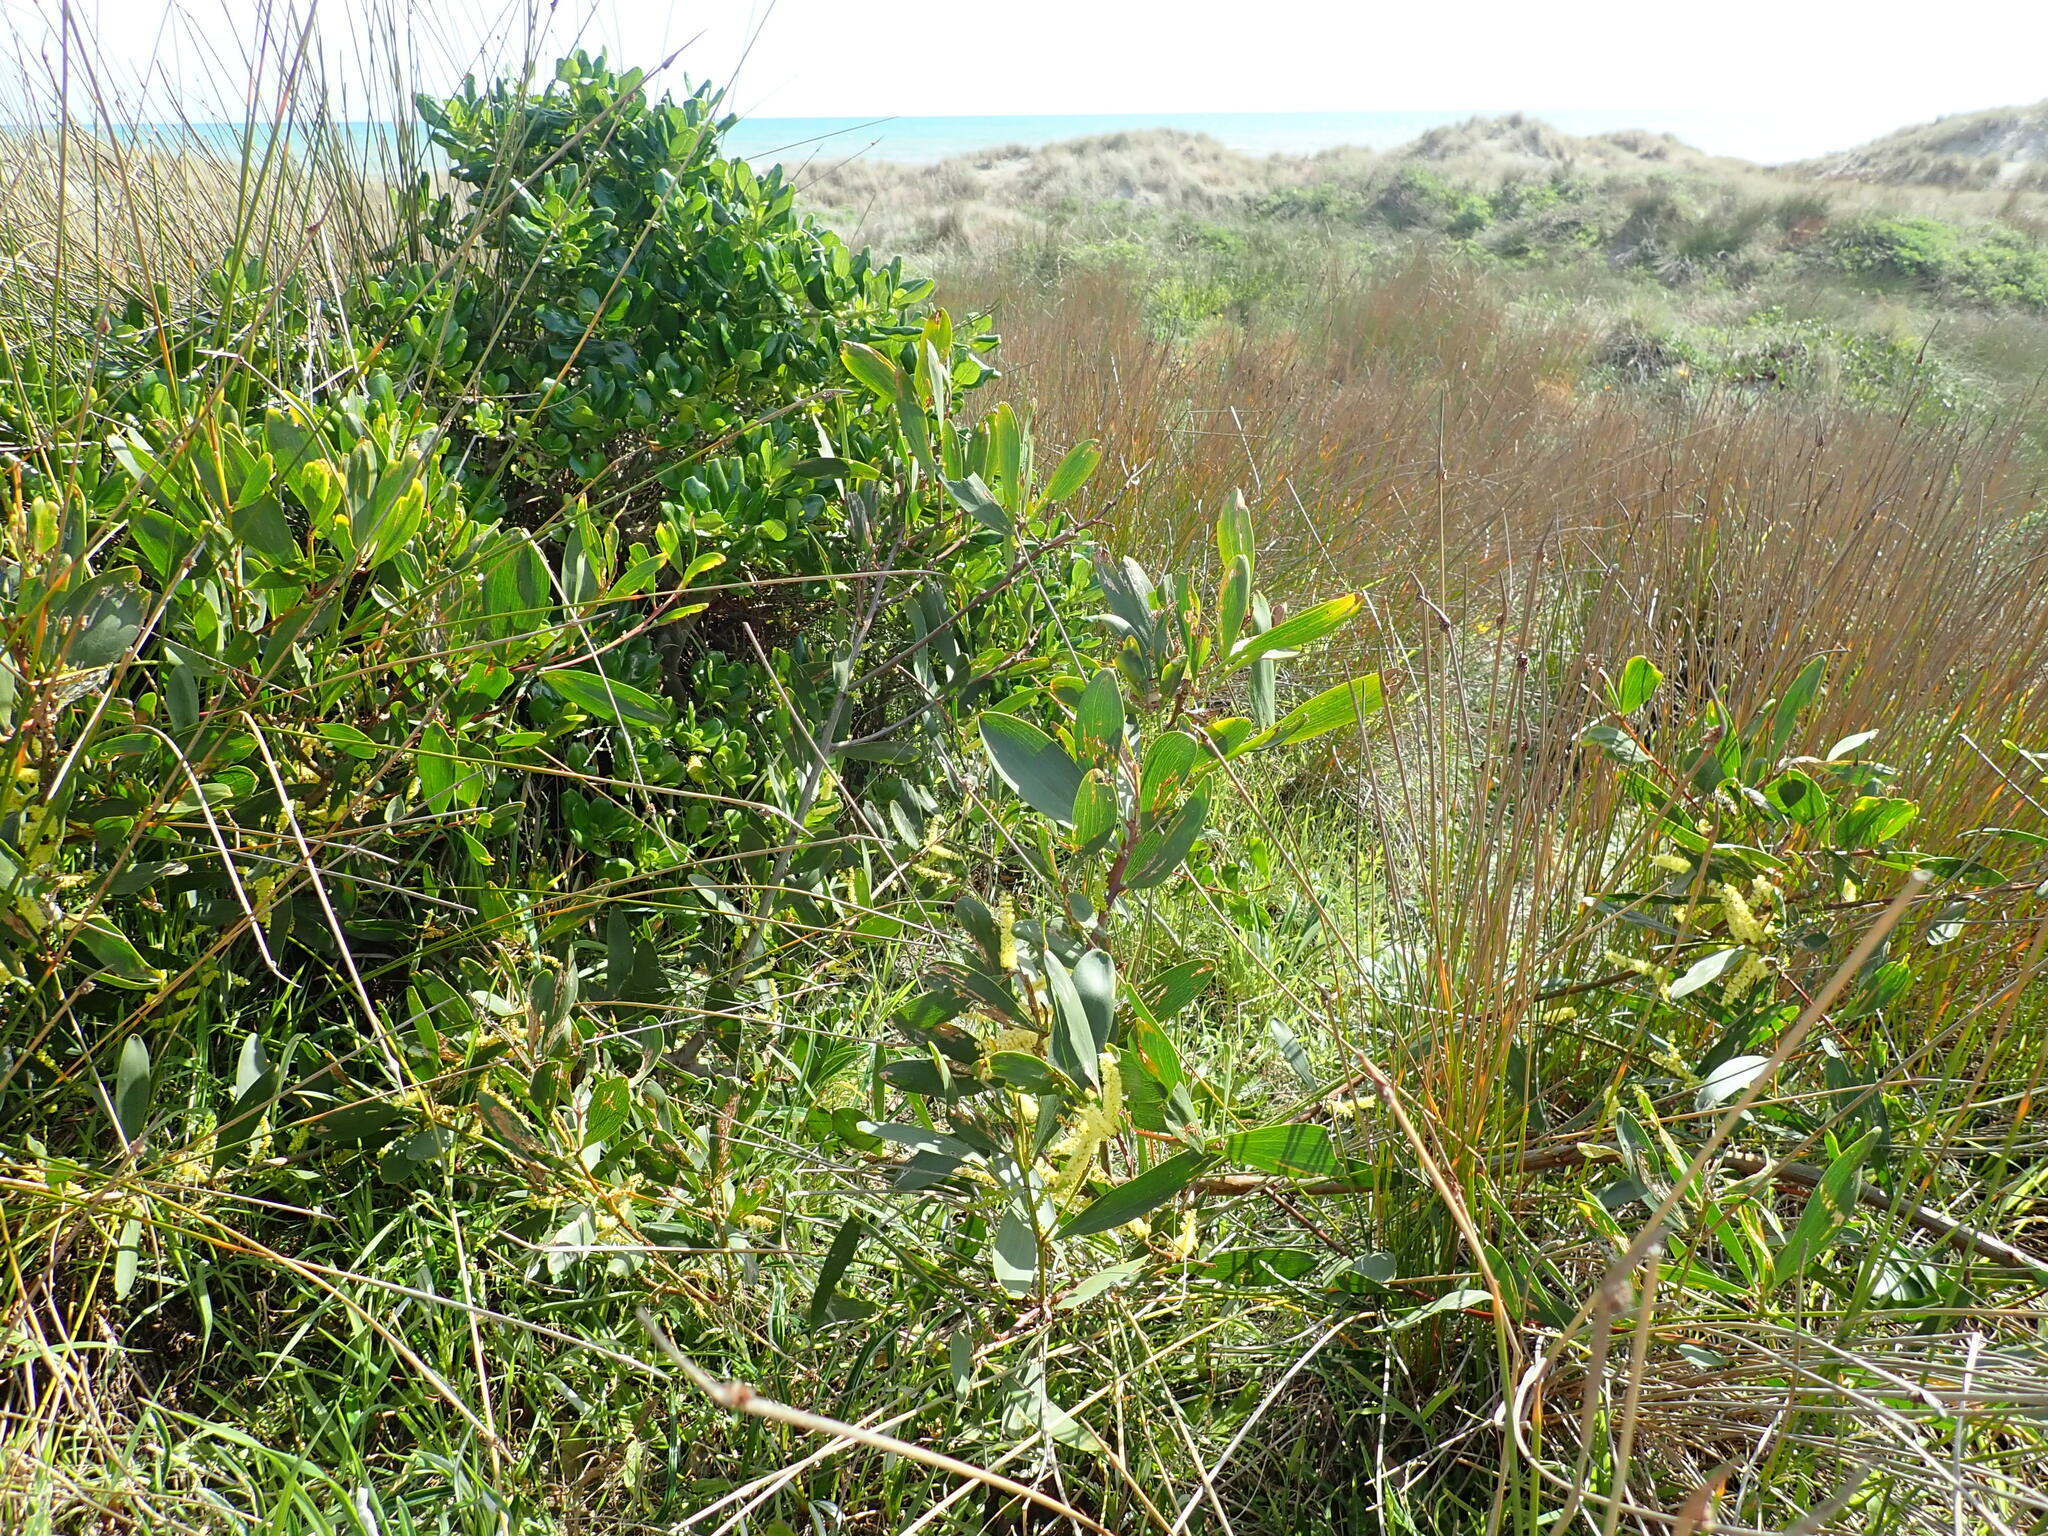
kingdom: Plantae
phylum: Tracheophyta
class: Magnoliopsida
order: Fabales
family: Fabaceae
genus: Acacia
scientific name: Acacia longifolia
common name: Sydney golden wattle
